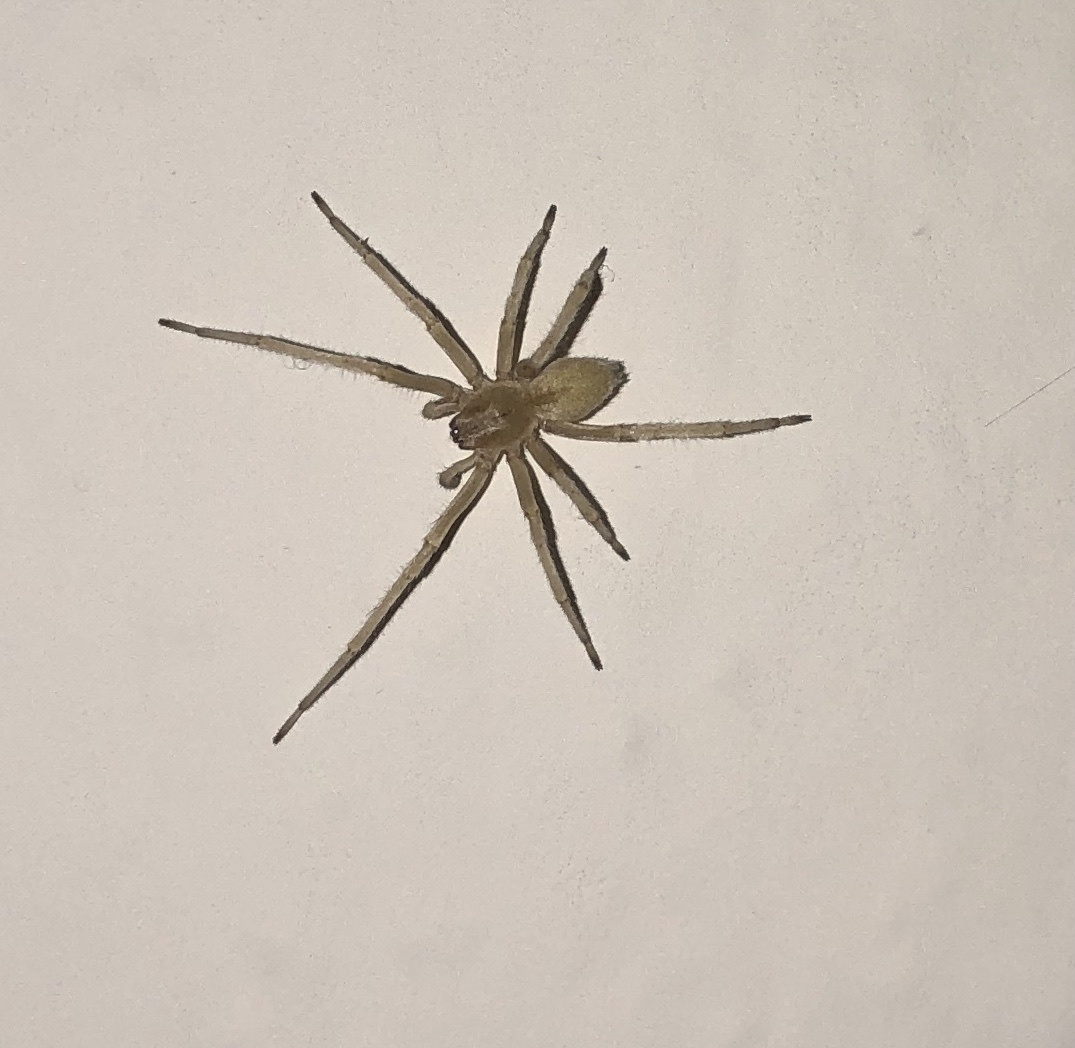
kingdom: Animalia
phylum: Arthropoda
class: Arachnida
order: Araneae
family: Cheiracanthiidae
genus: Cheiracanthium
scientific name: Cheiracanthium mildei
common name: Northern yellow sac spider
